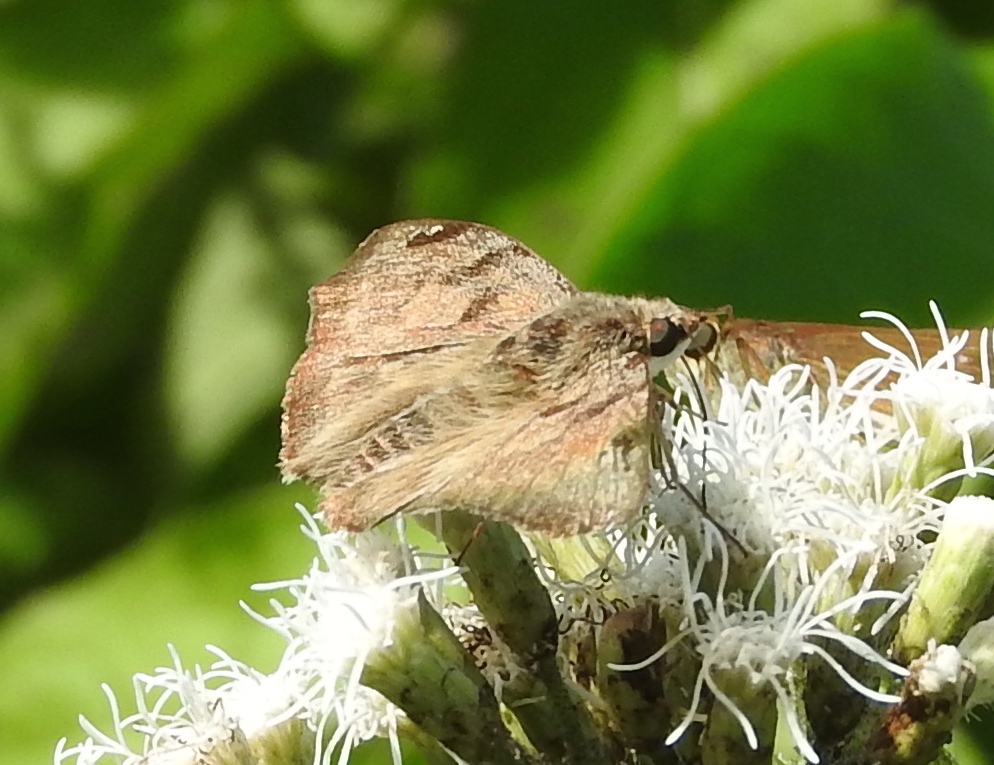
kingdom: Animalia
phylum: Arthropoda
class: Insecta
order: Lepidoptera
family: Hesperiidae
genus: Arteurotia
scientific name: Arteurotia tractipennis
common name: Starred skipper
